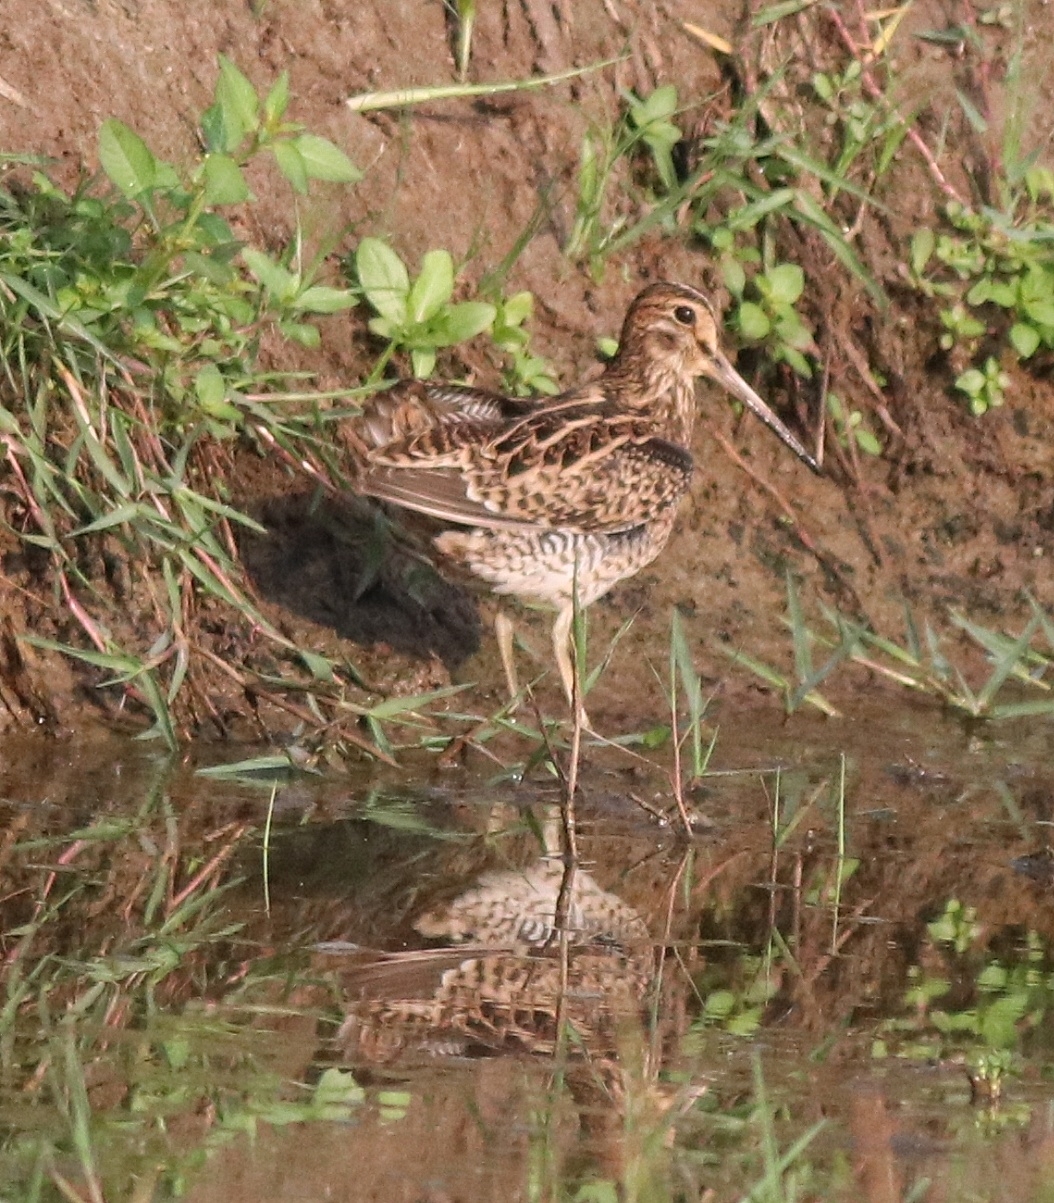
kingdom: Animalia
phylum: Chordata
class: Aves
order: Charadriiformes
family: Scolopacidae
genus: Gallinago
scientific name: Gallinago stenura
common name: Pin-tailed snipe
